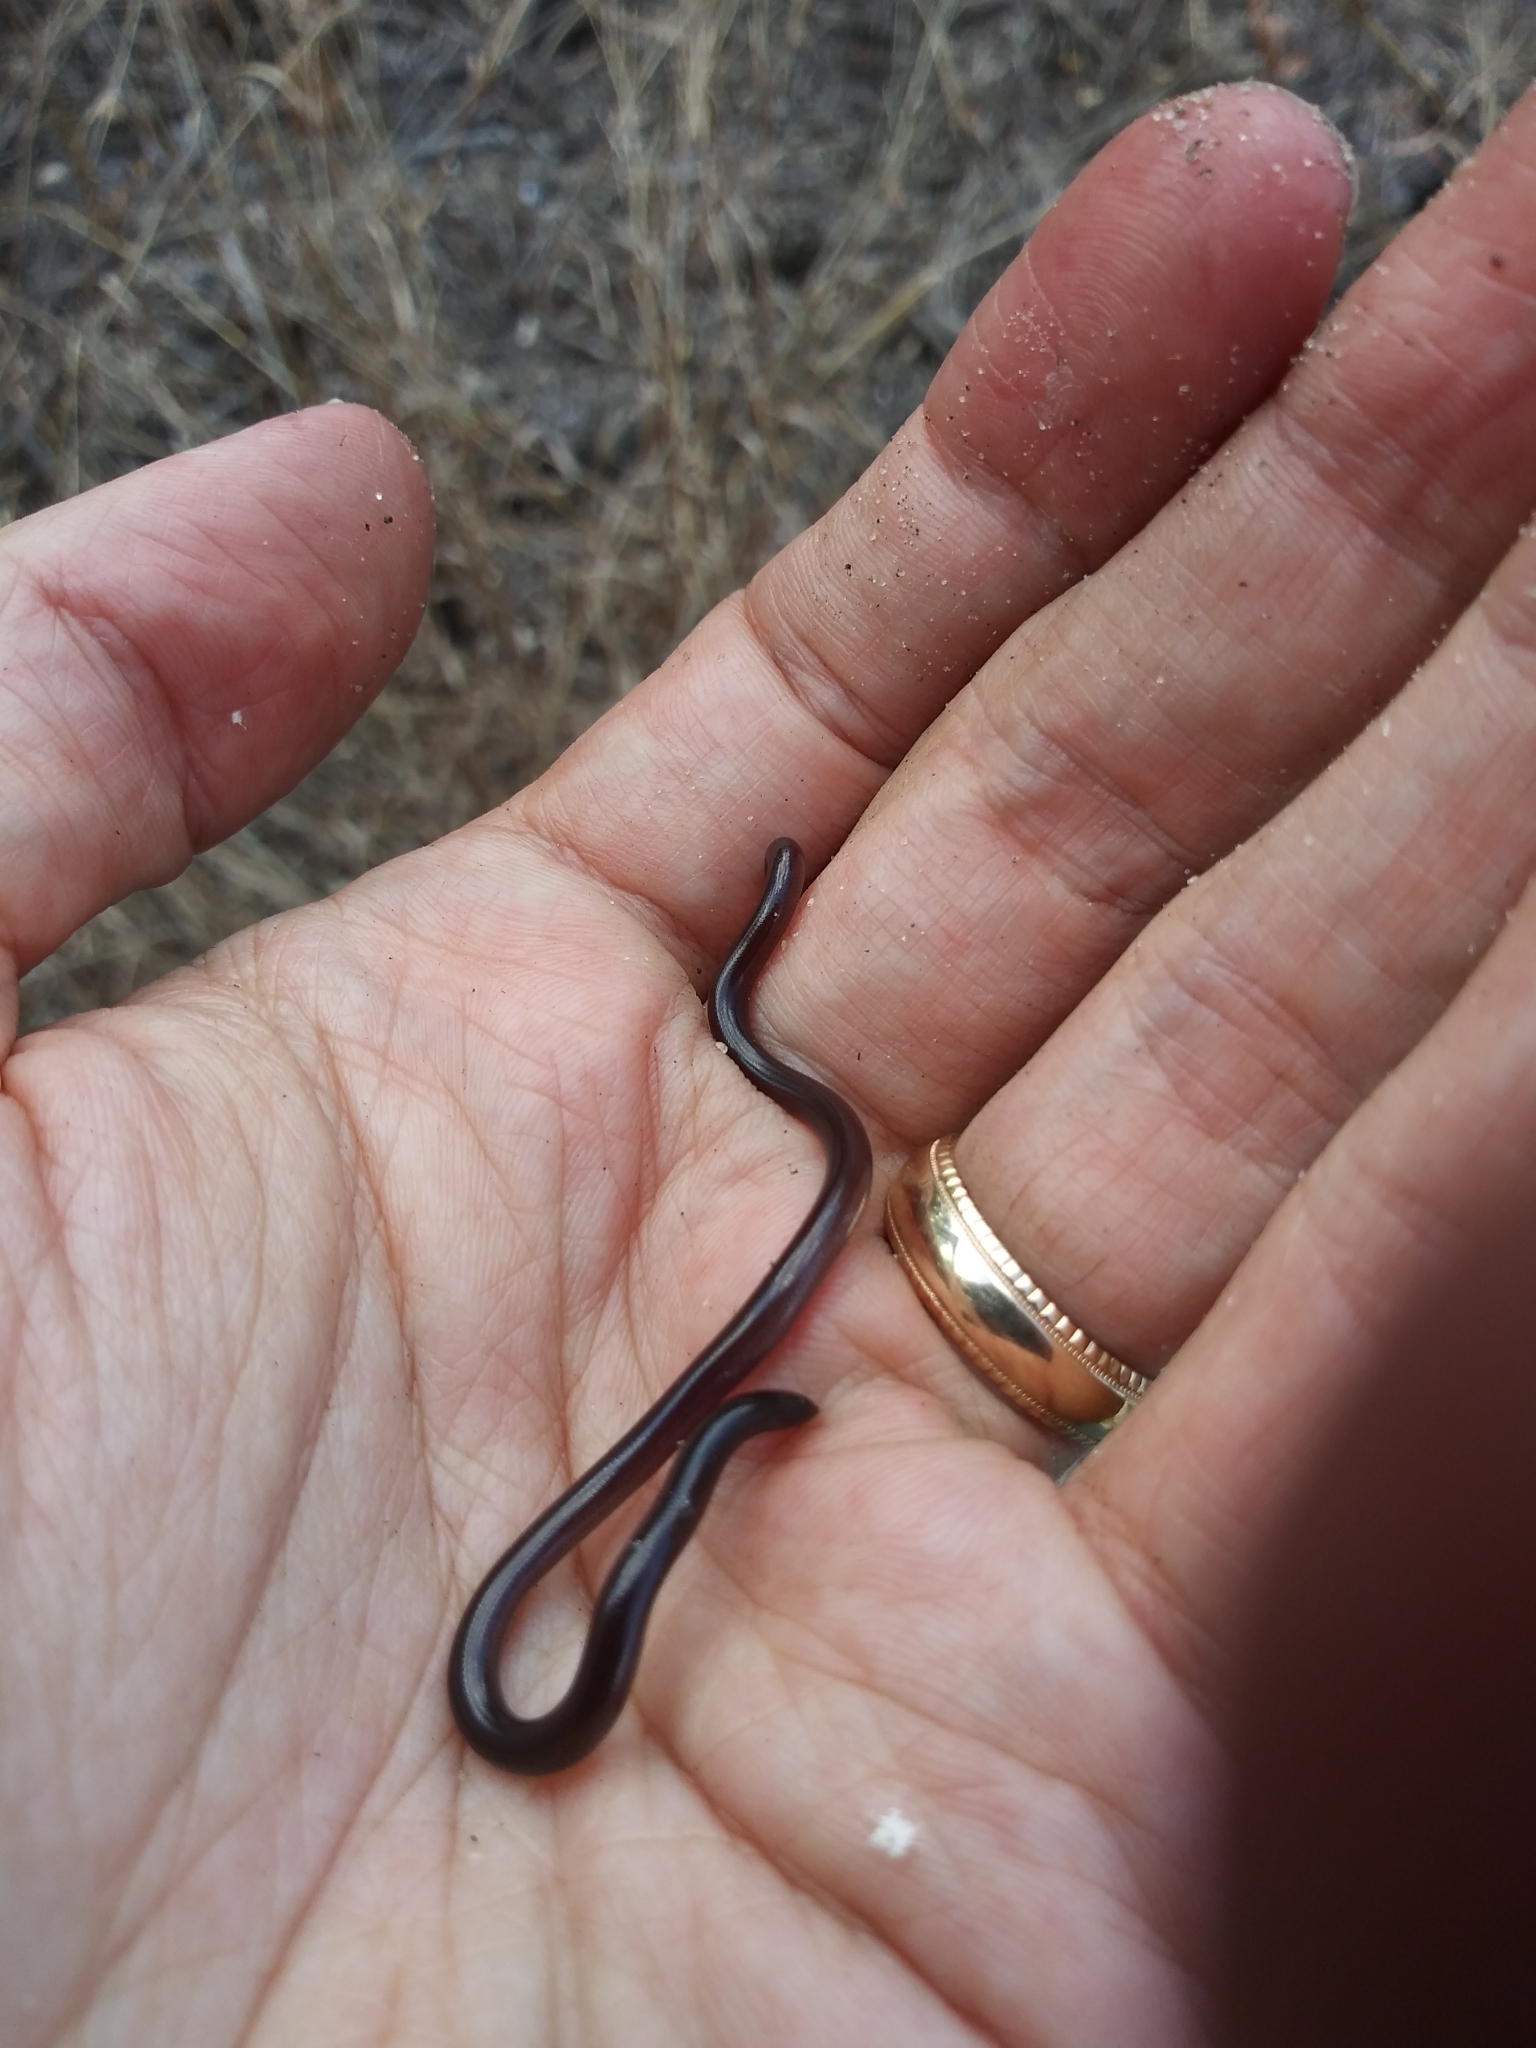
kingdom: Animalia
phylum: Chordata
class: Squamata
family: Typhlopidae
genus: Indotyphlops
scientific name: Indotyphlops braminus
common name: Brahminy blindsnake
